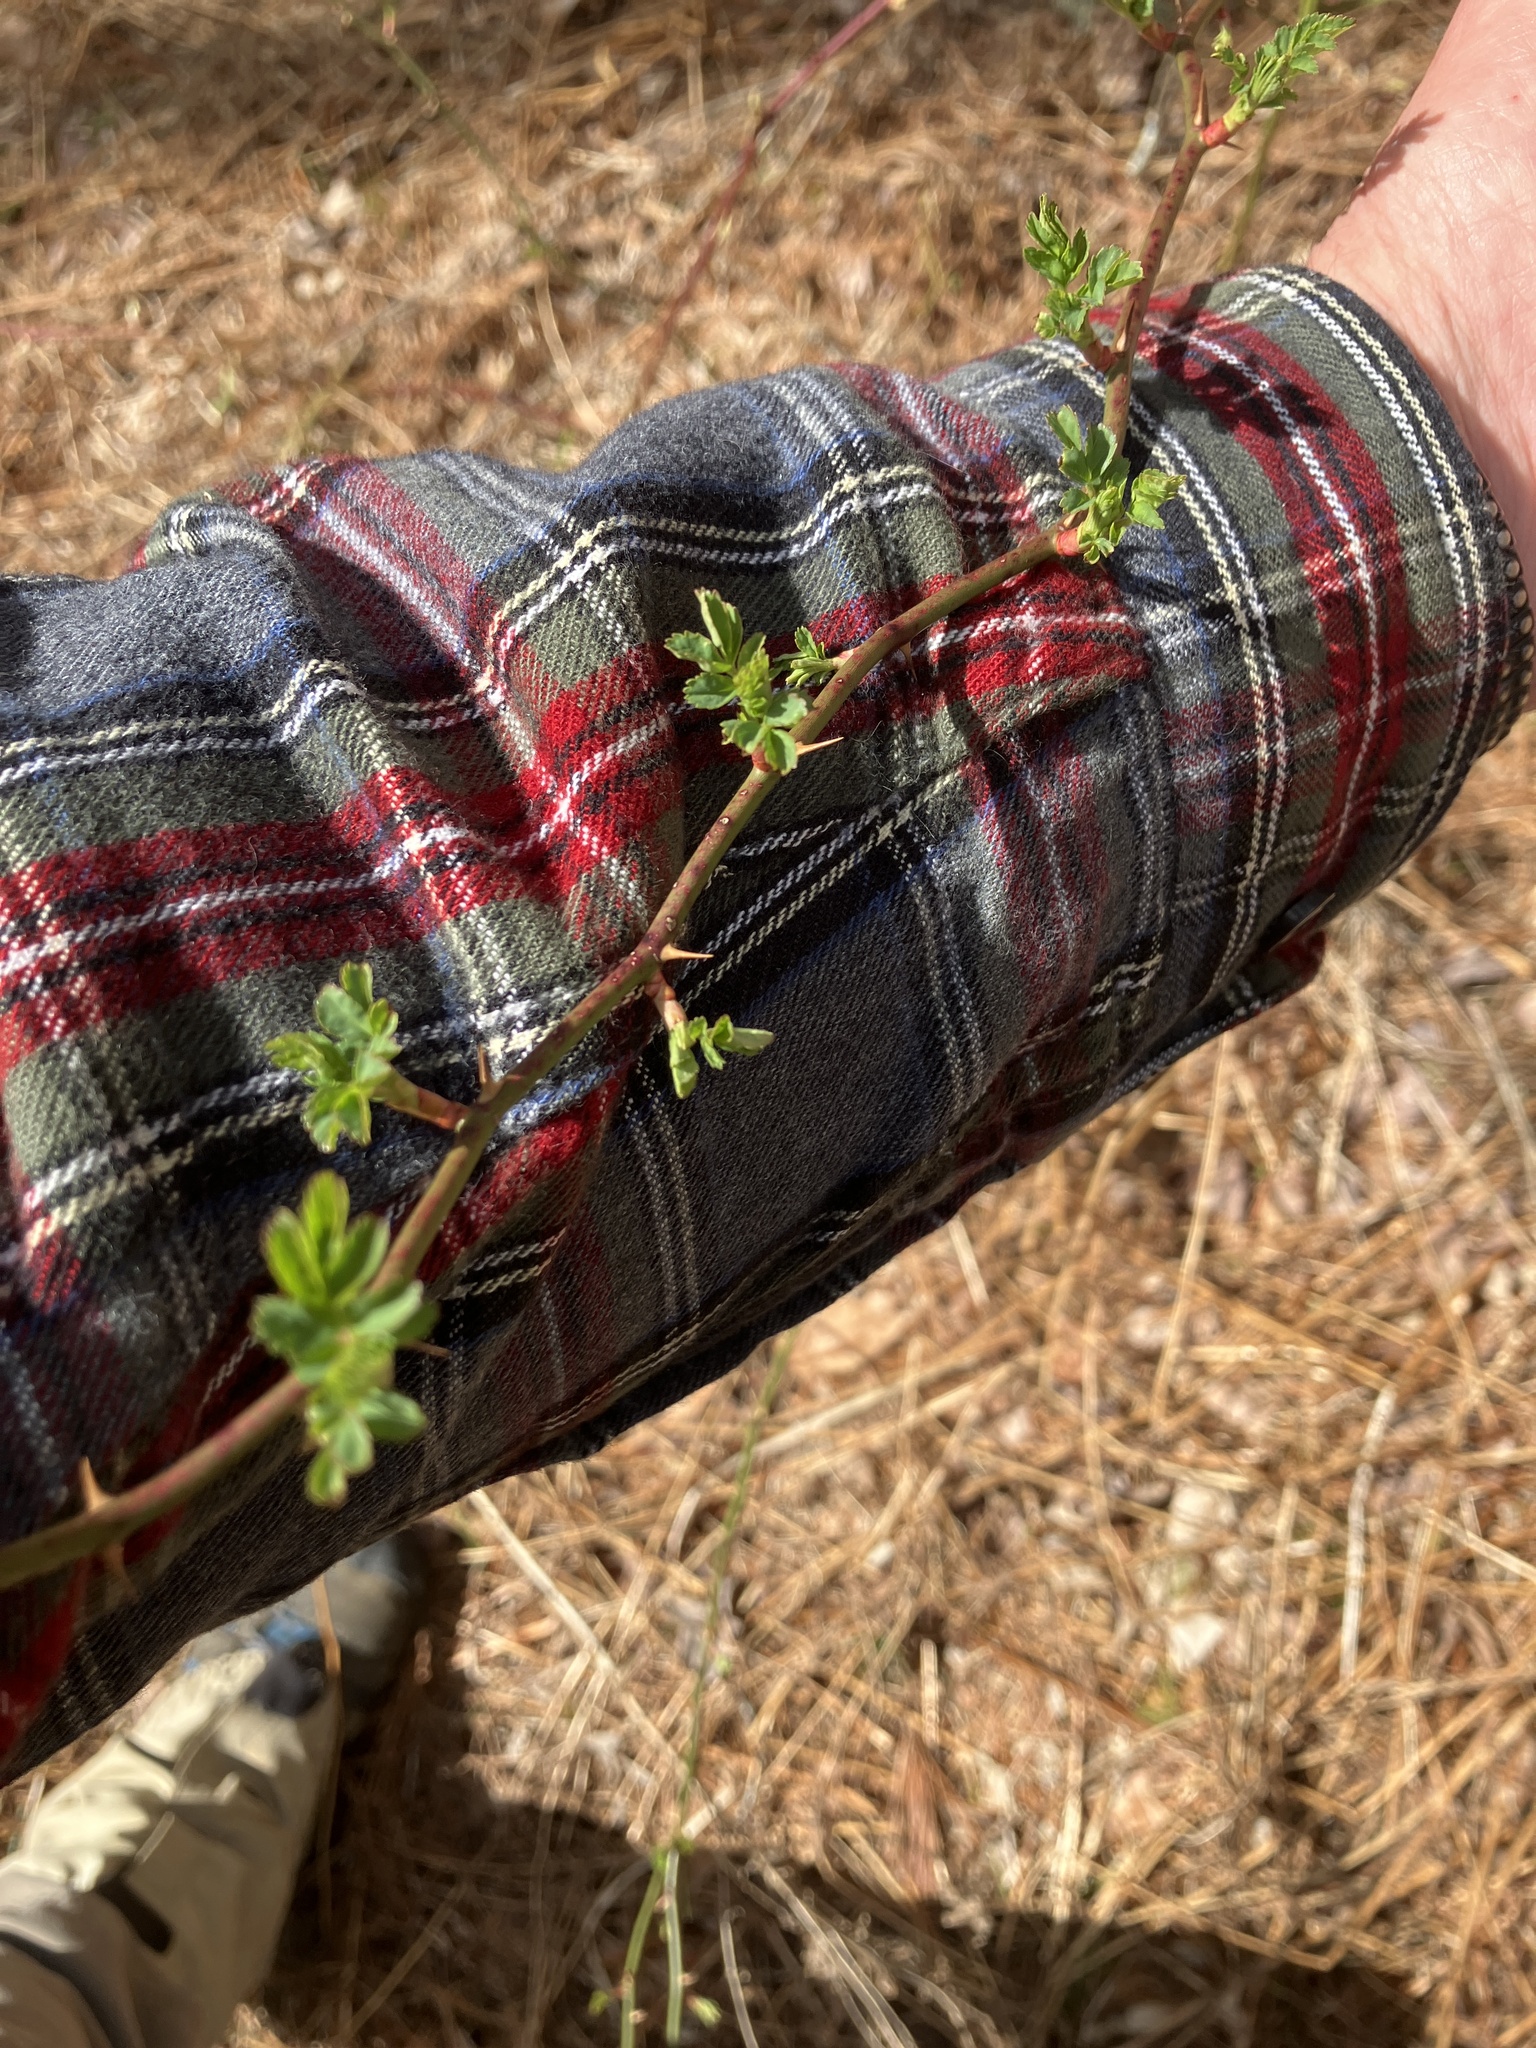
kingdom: Plantae
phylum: Tracheophyta
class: Magnoliopsida
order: Rosales
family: Rosaceae
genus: Rosa
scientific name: Rosa multiflora
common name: Multiflora rose
